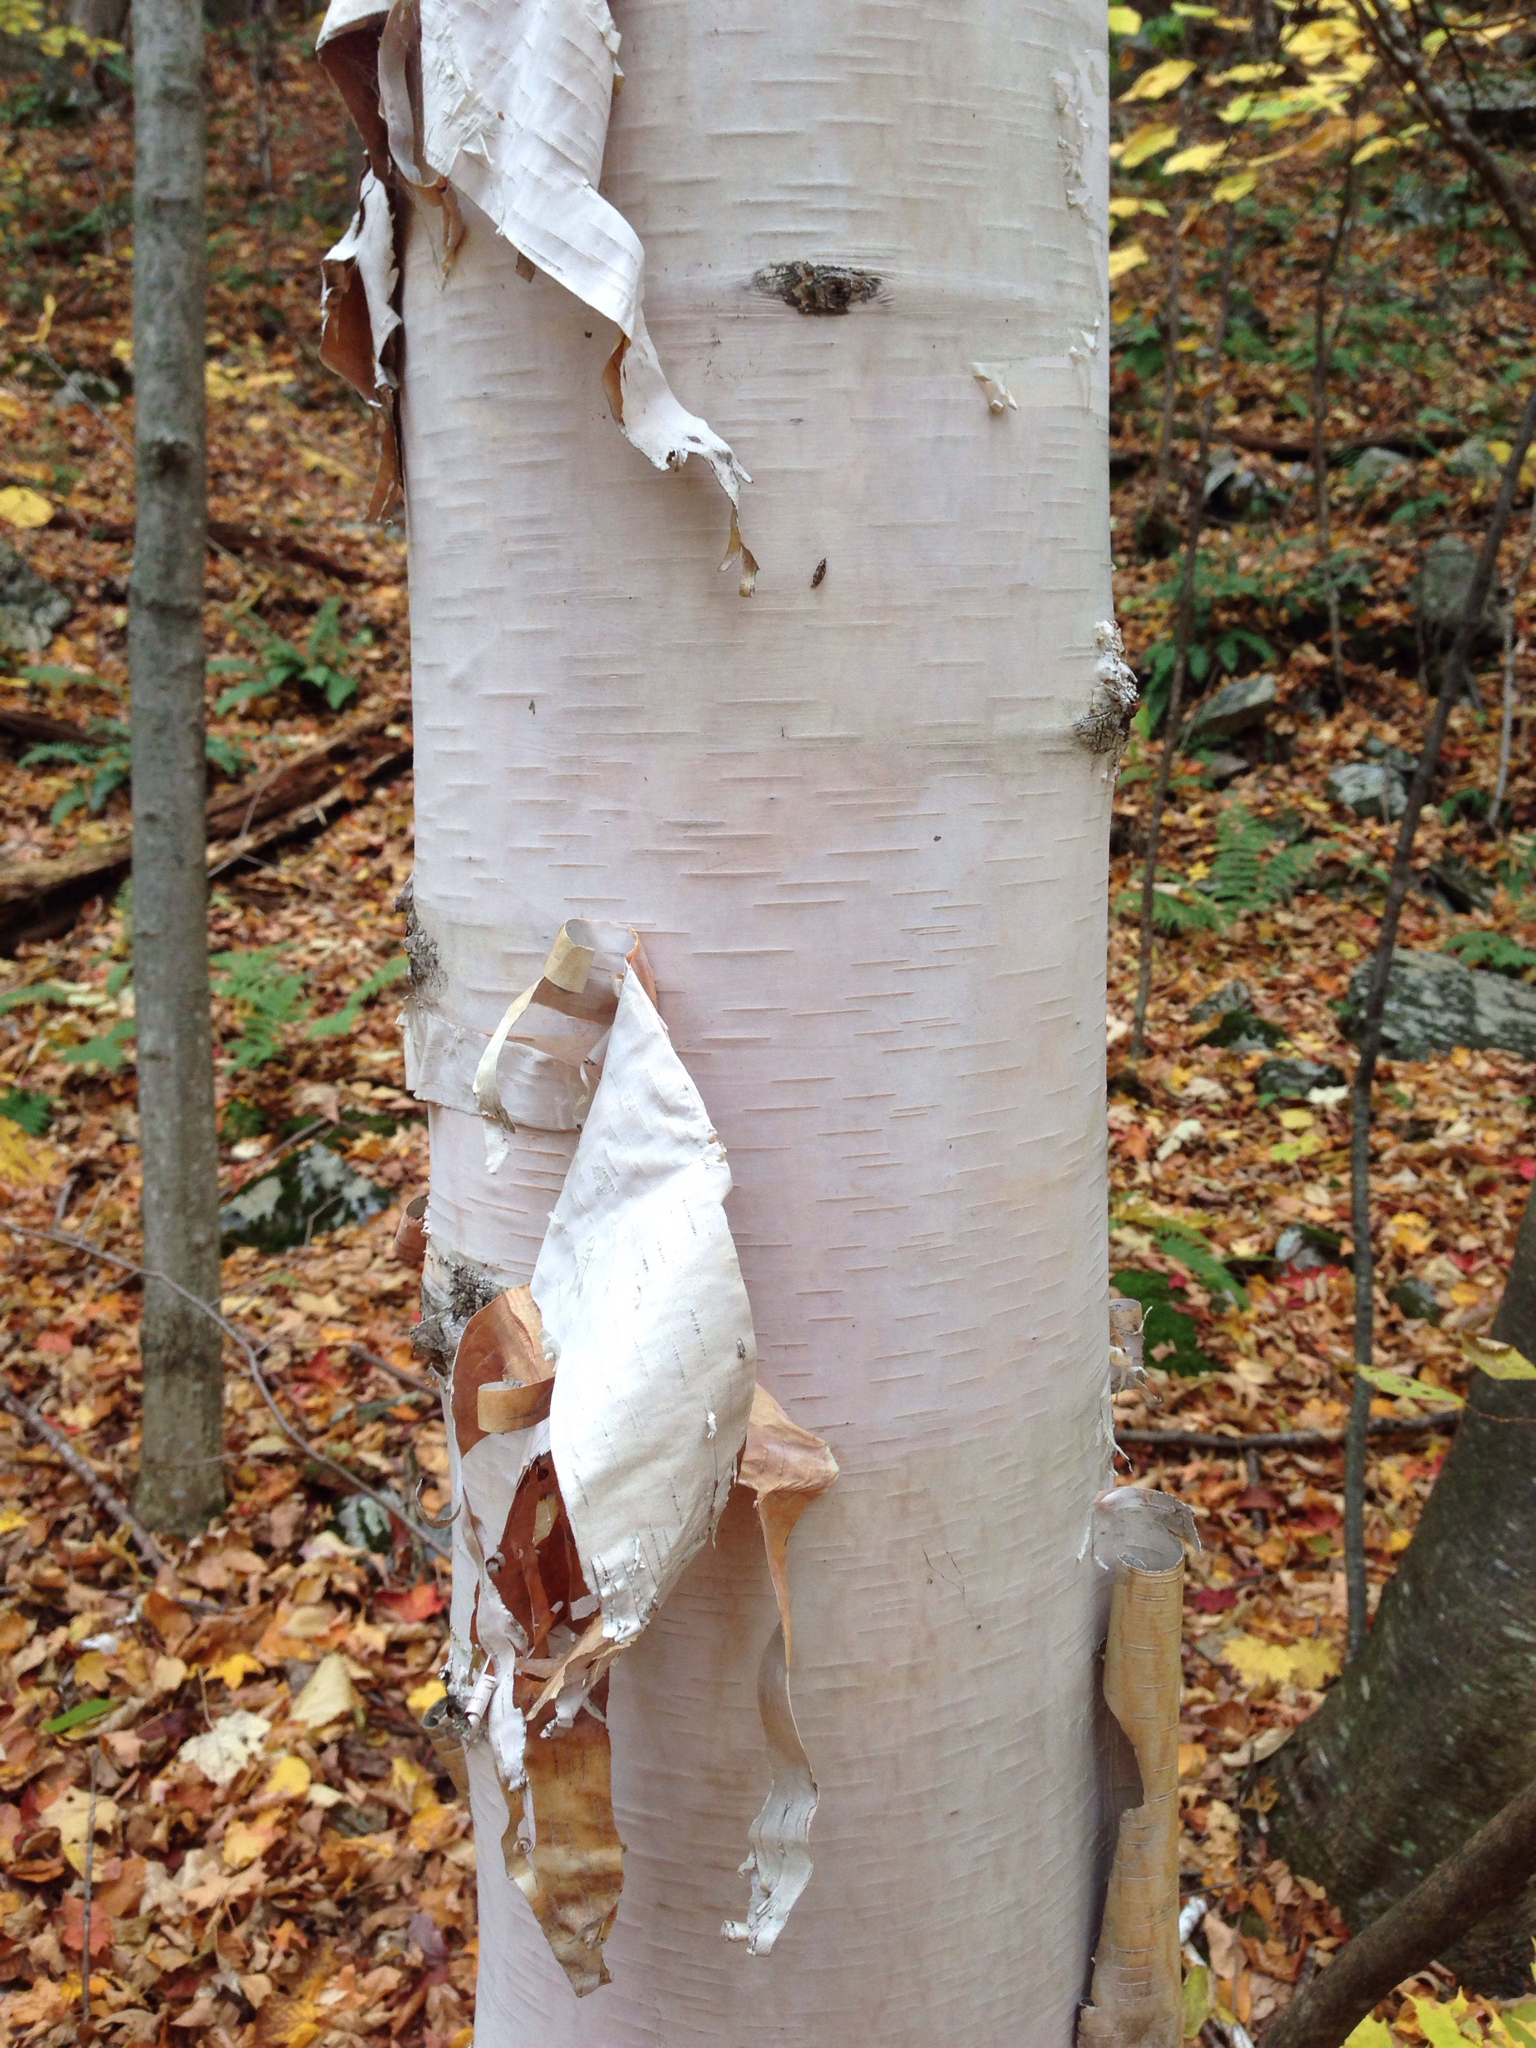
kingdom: Plantae
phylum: Tracheophyta
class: Magnoliopsida
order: Fagales
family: Betulaceae
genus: Betula
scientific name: Betula papyrifera
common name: Paper birch
